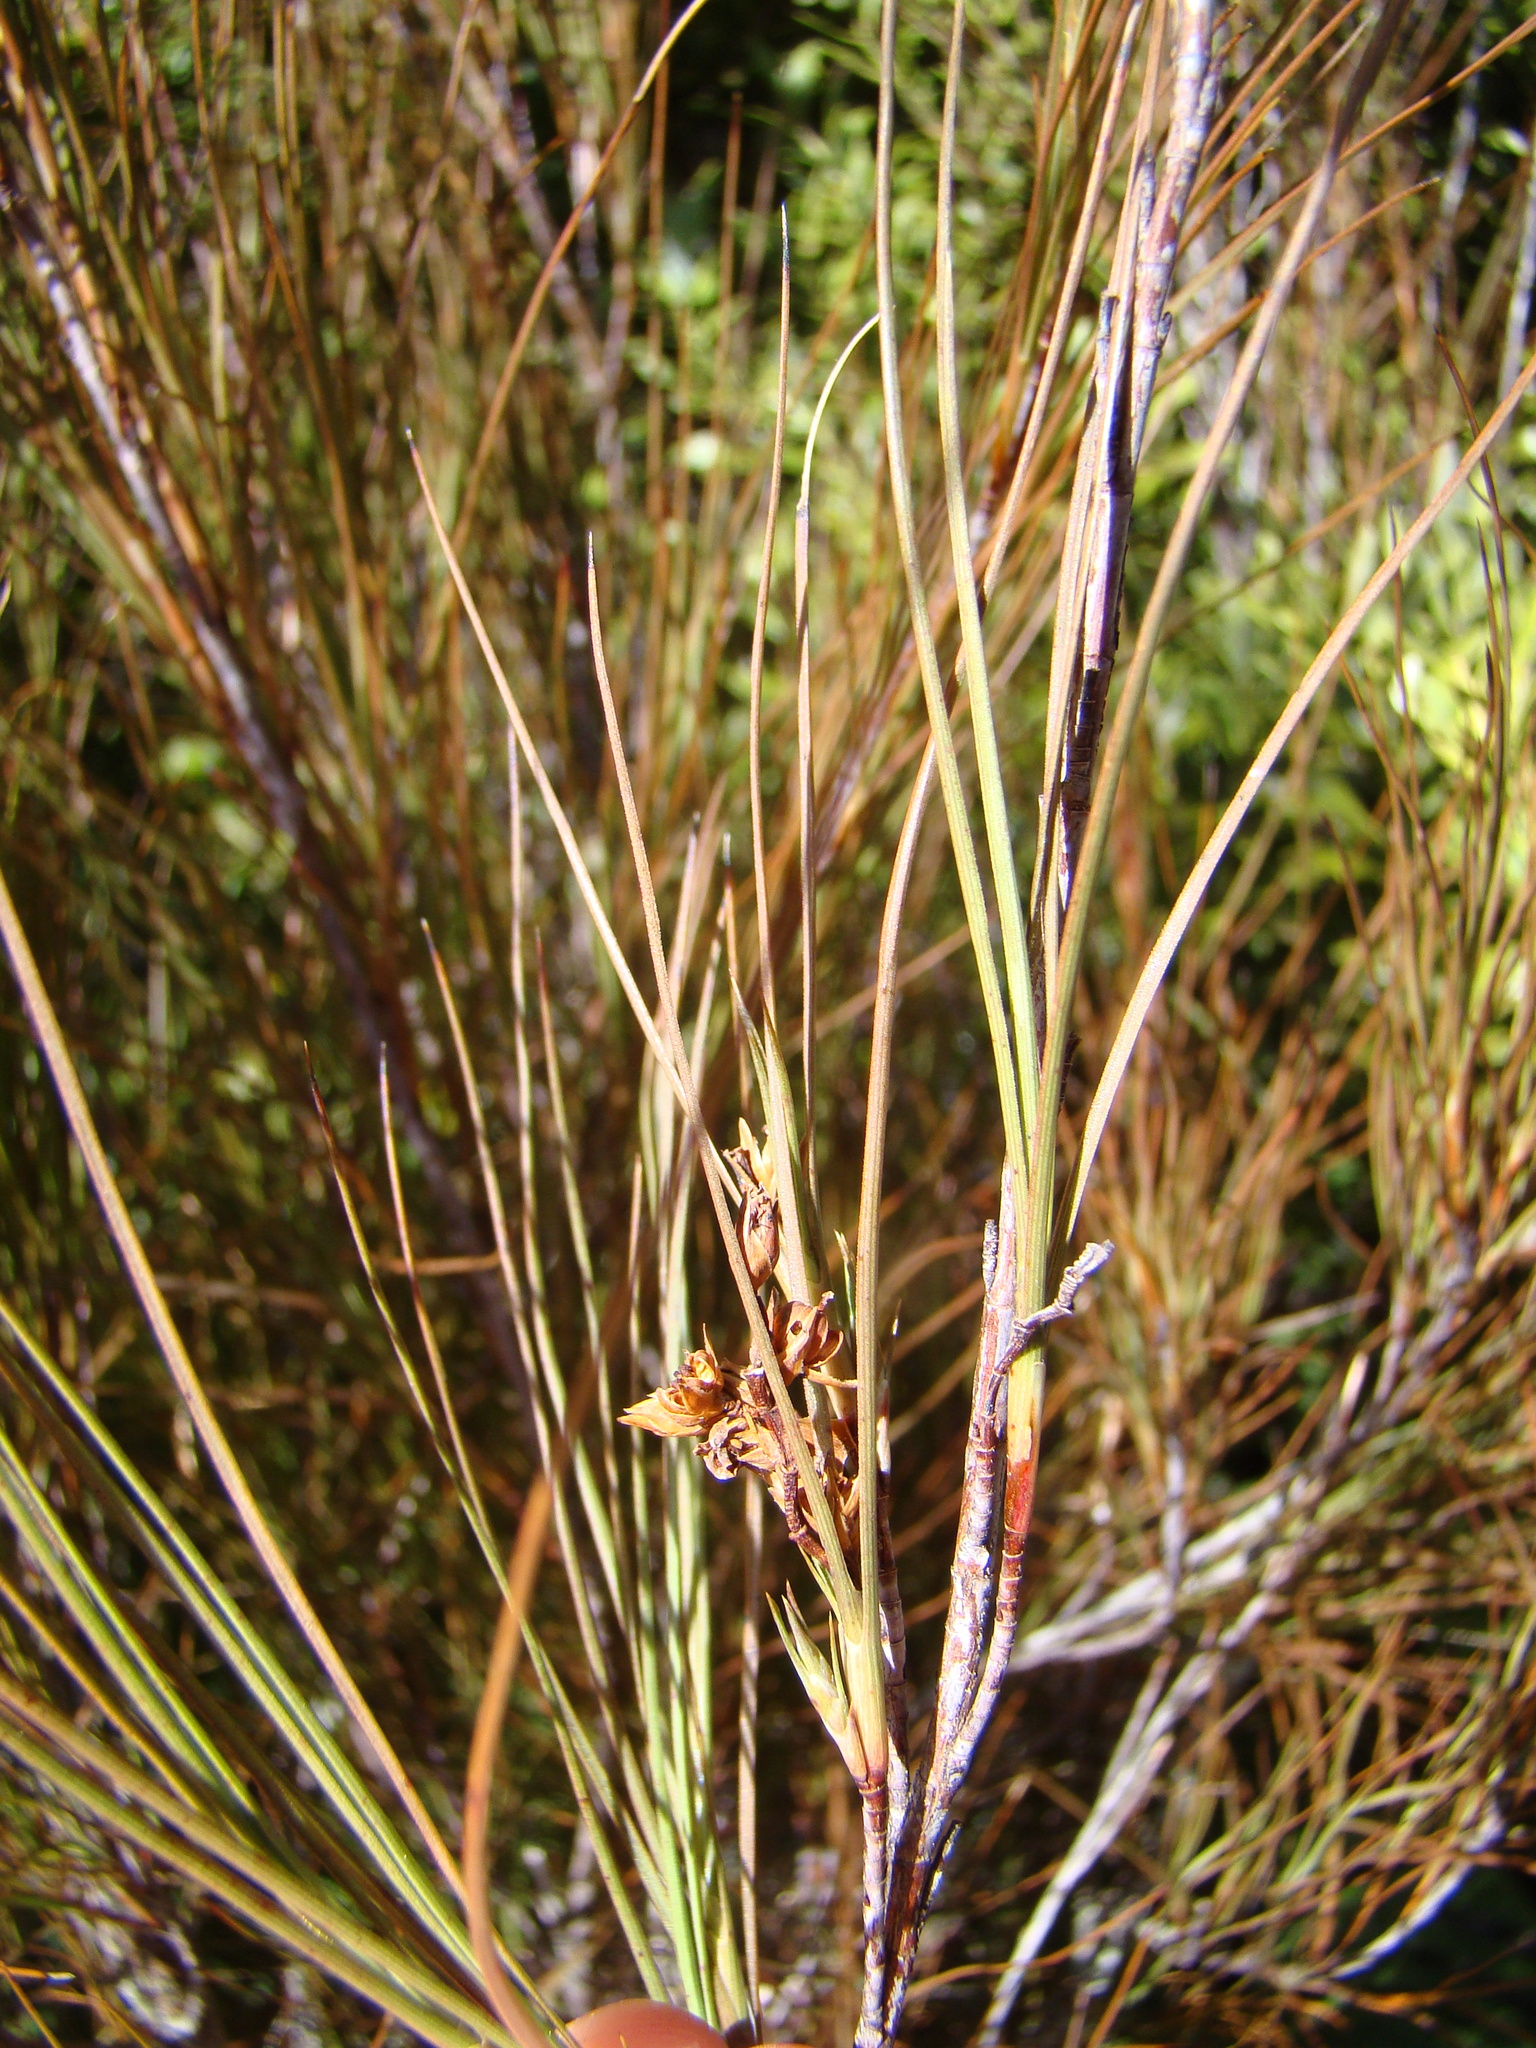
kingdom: Plantae
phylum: Tracheophyta
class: Magnoliopsida
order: Ericales
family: Ericaceae
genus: Dracophyllum
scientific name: Dracophyllum filifolium
